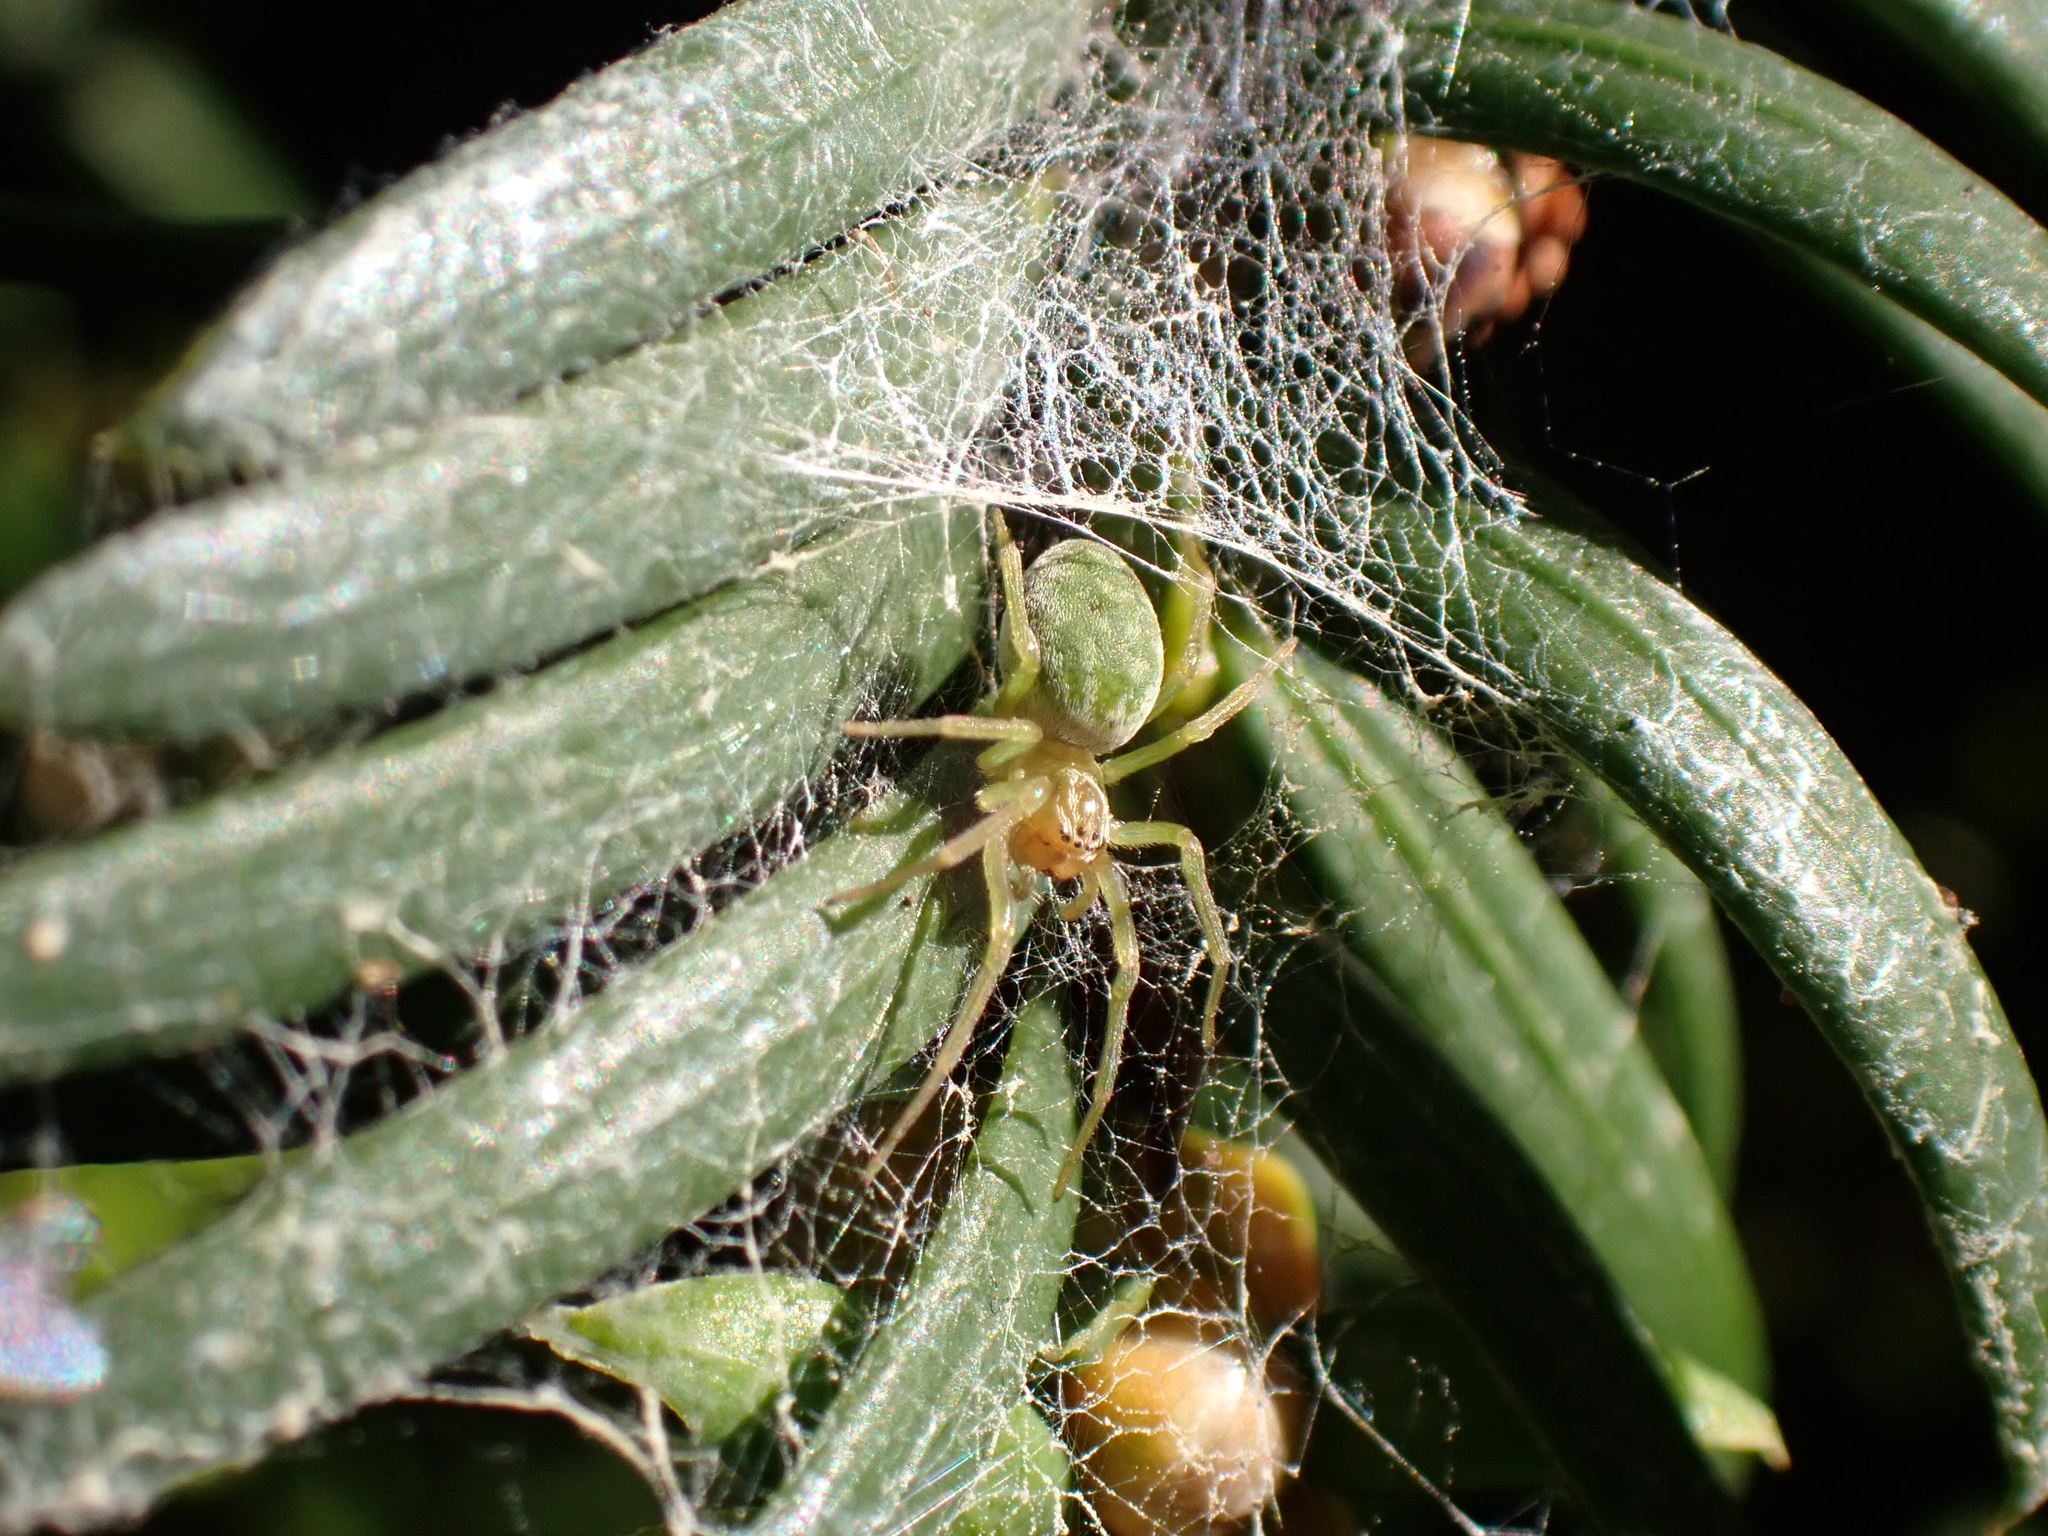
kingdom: Animalia
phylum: Arthropoda
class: Arachnida
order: Araneae
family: Dictynidae
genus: Nigma
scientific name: Nigma walckenaeri
